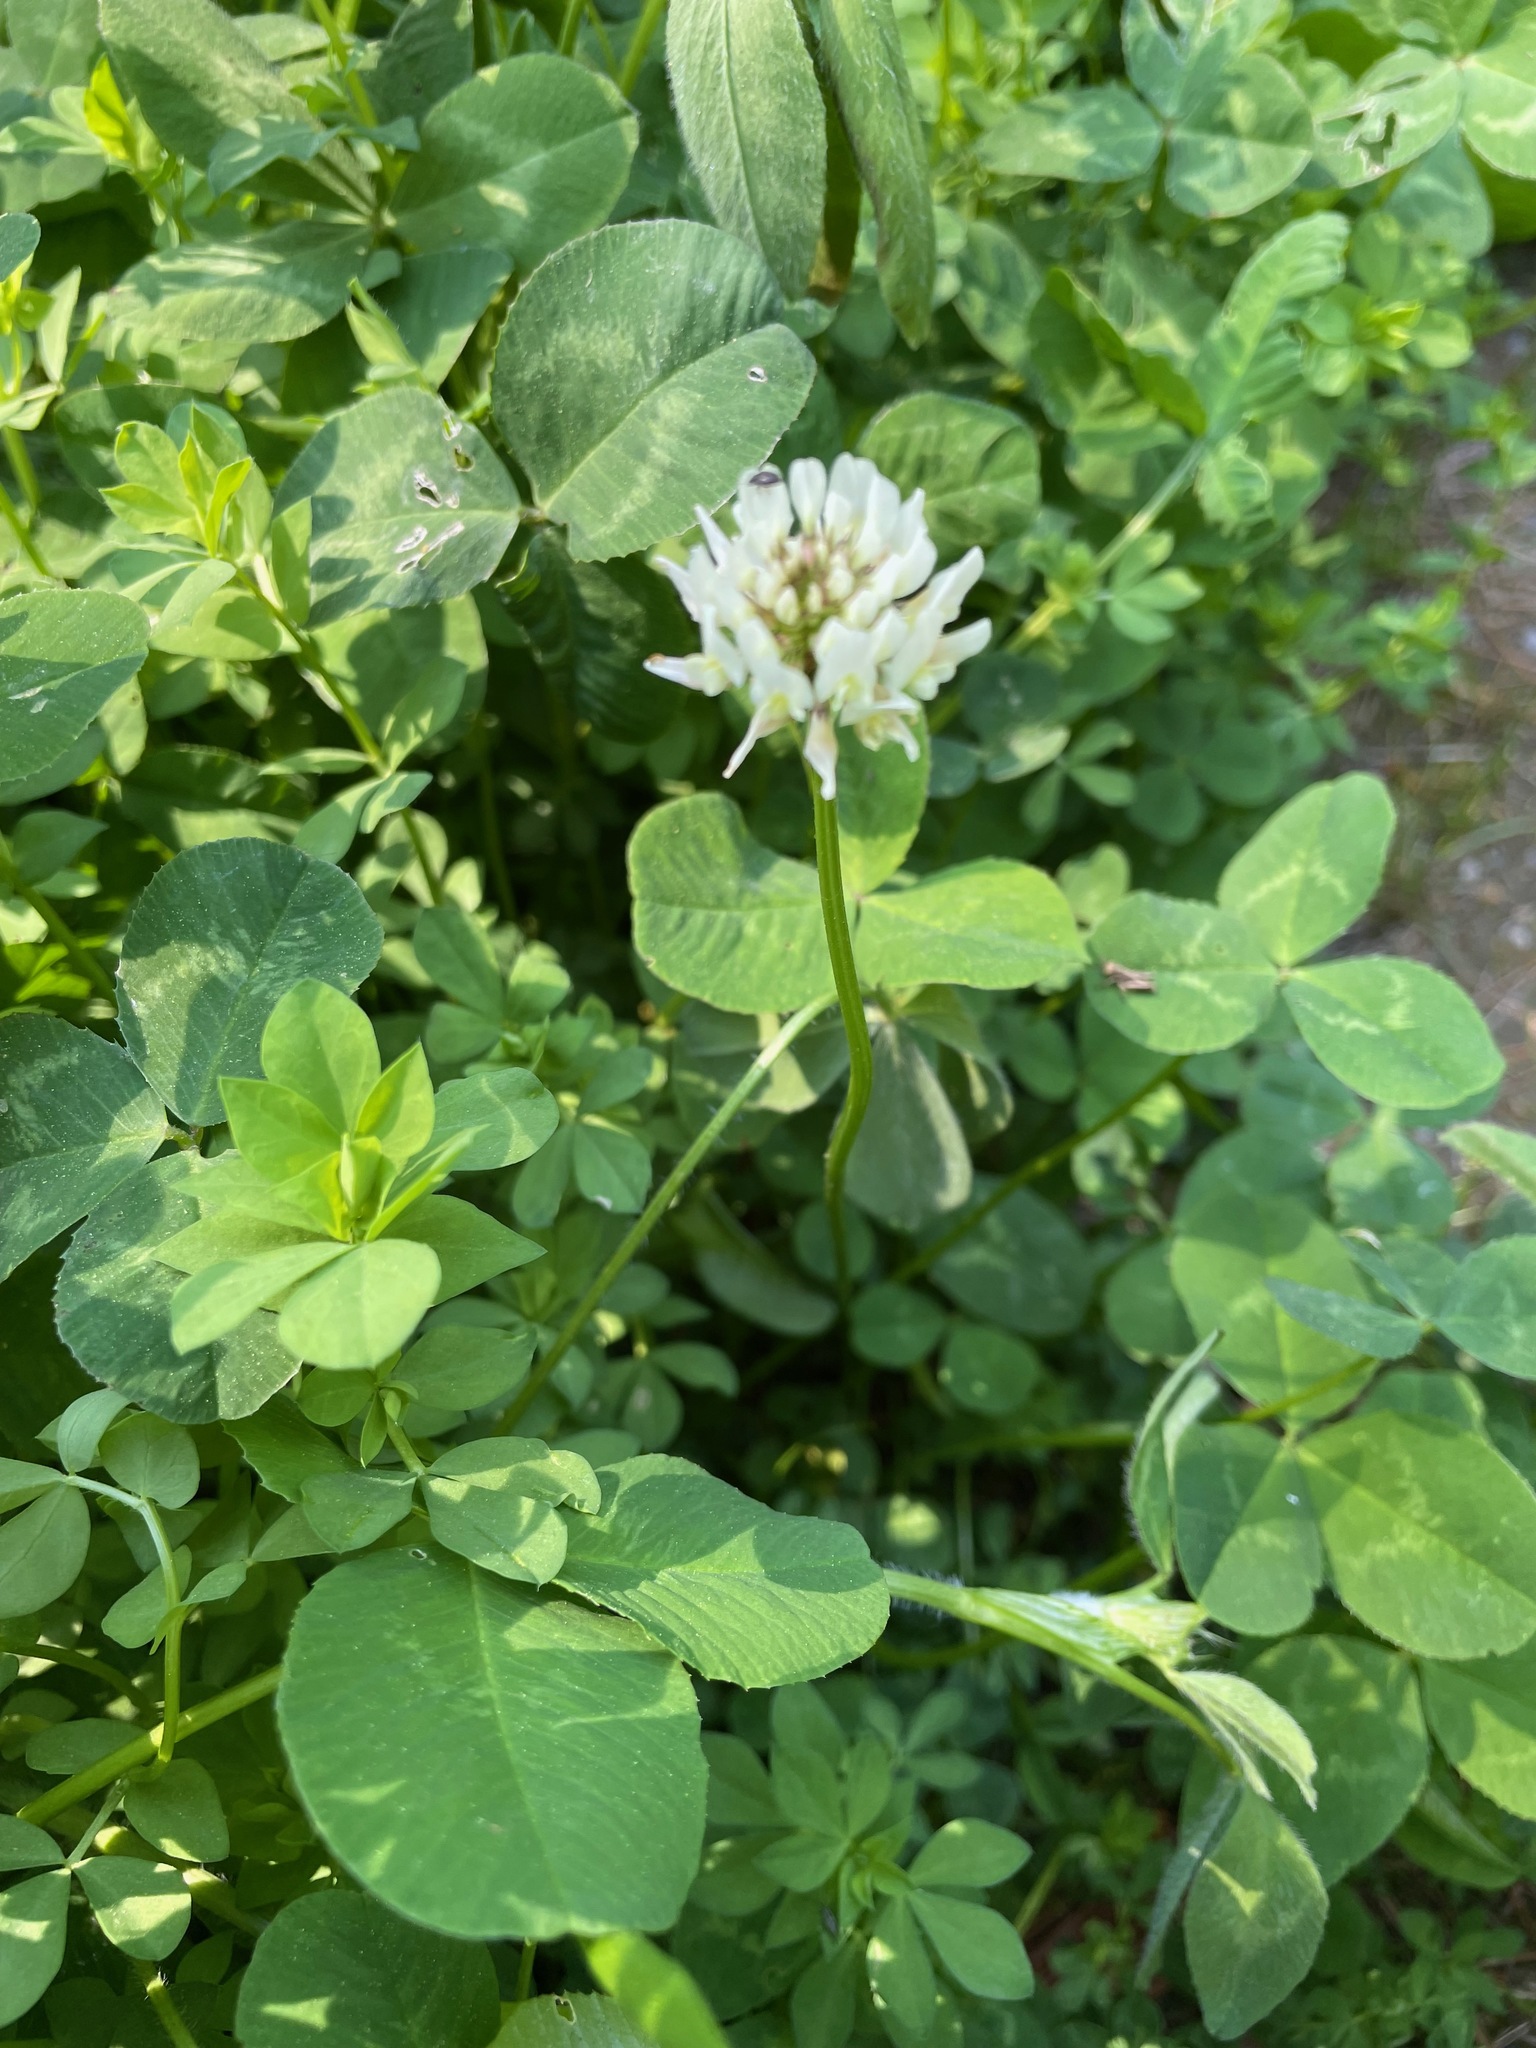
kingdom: Plantae
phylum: Tracheophyta
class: Magnoliopsida
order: Fabales
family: Fabaceae
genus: Trifolium
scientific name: Trifolium repens
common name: White clover
